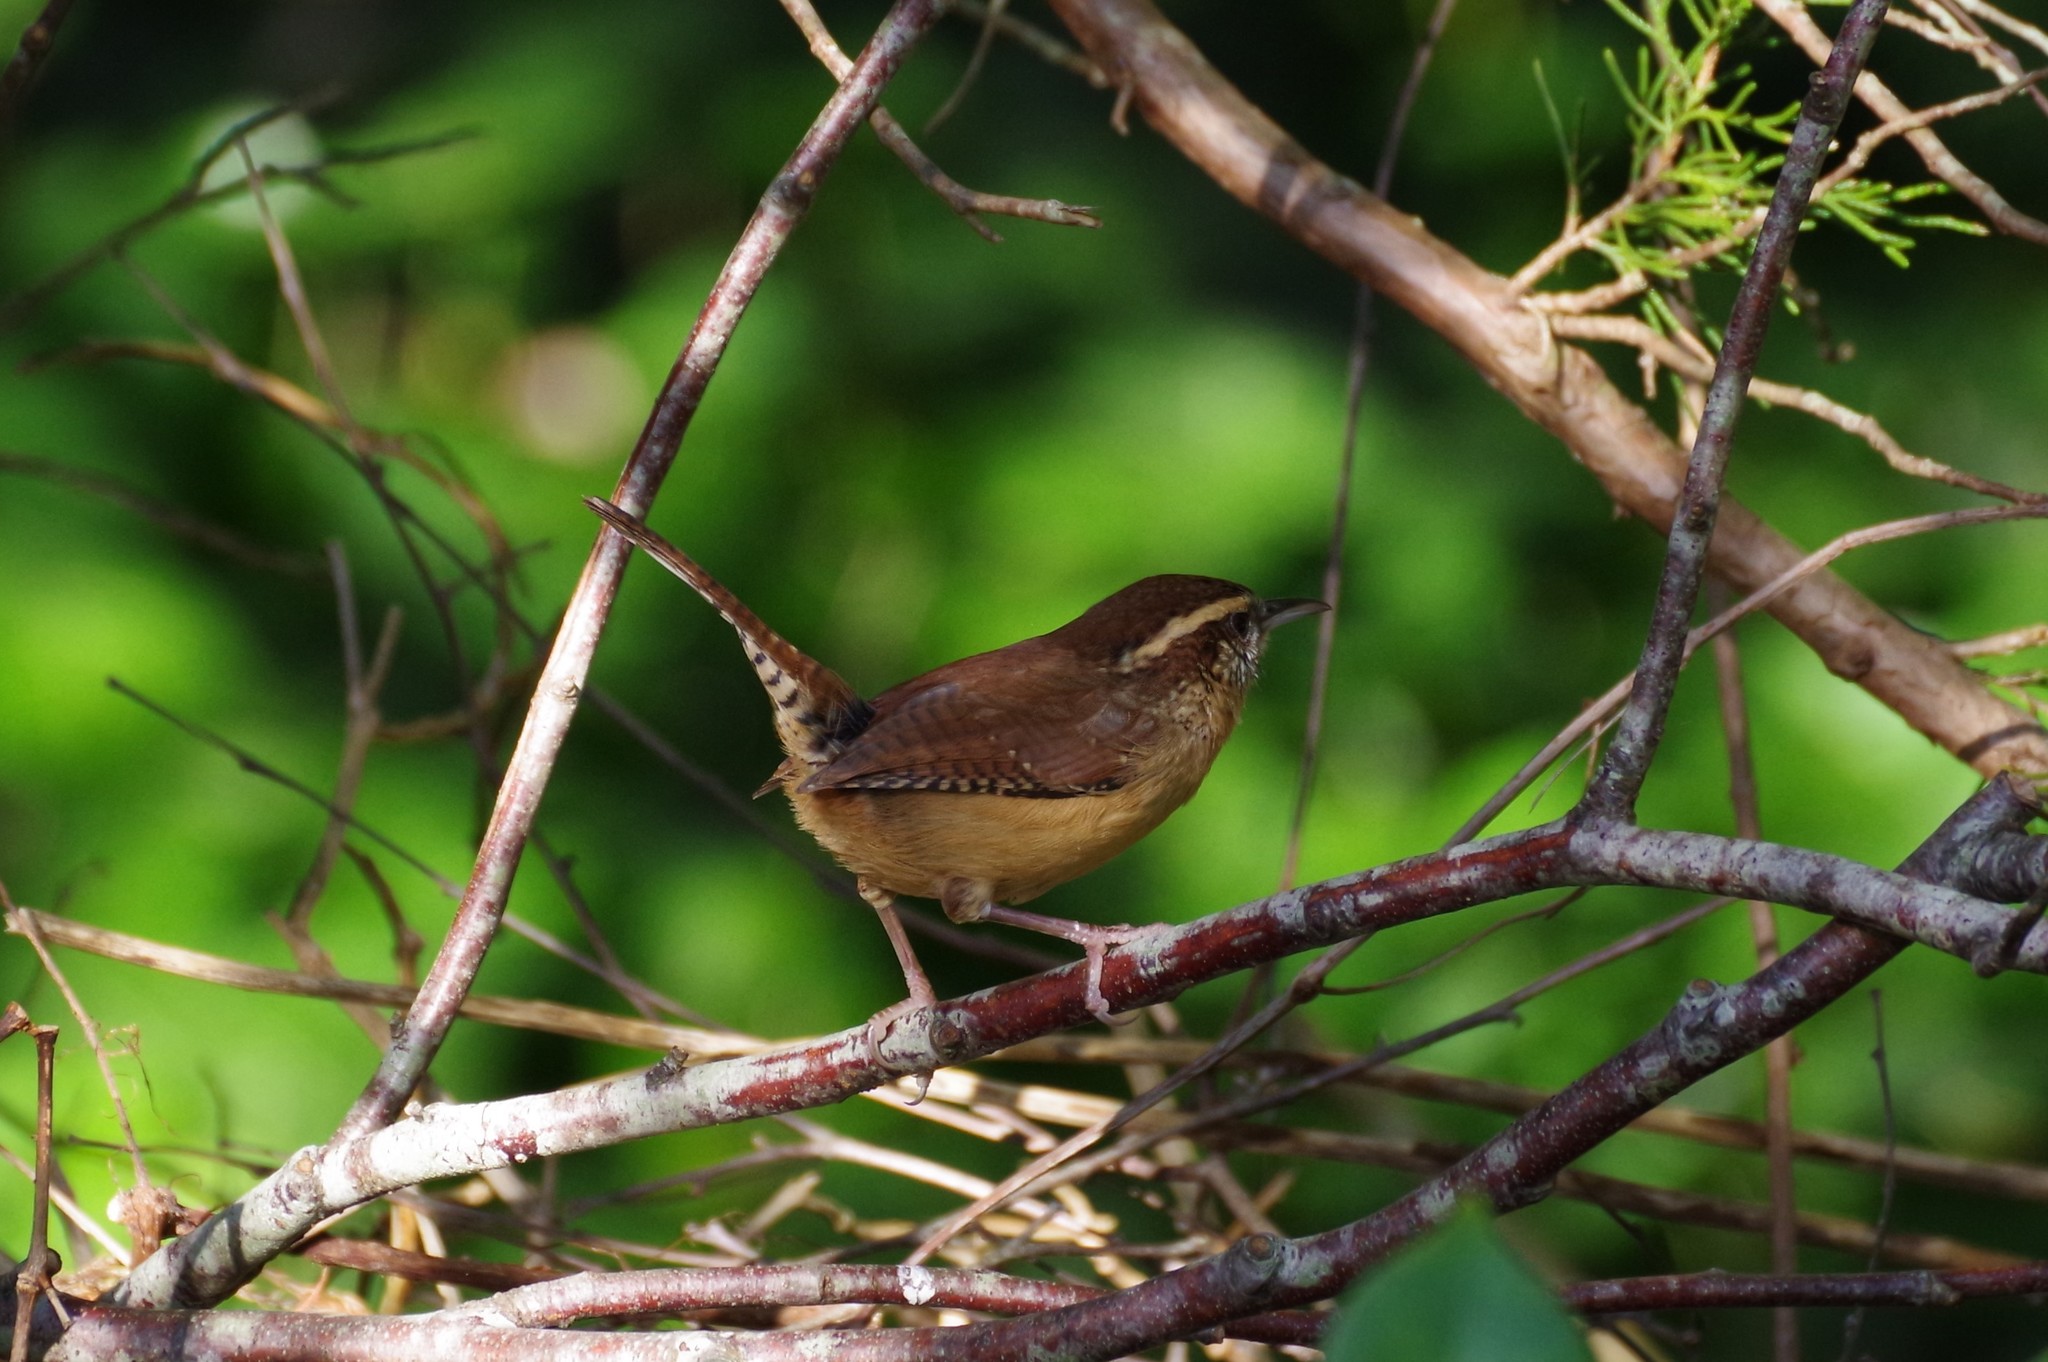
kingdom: Animalia
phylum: Chordata
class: Aves
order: Passeriformes
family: Troglodytidae
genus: Thryothorus
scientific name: Thryothorus ludovicianus
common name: Carolina wren
